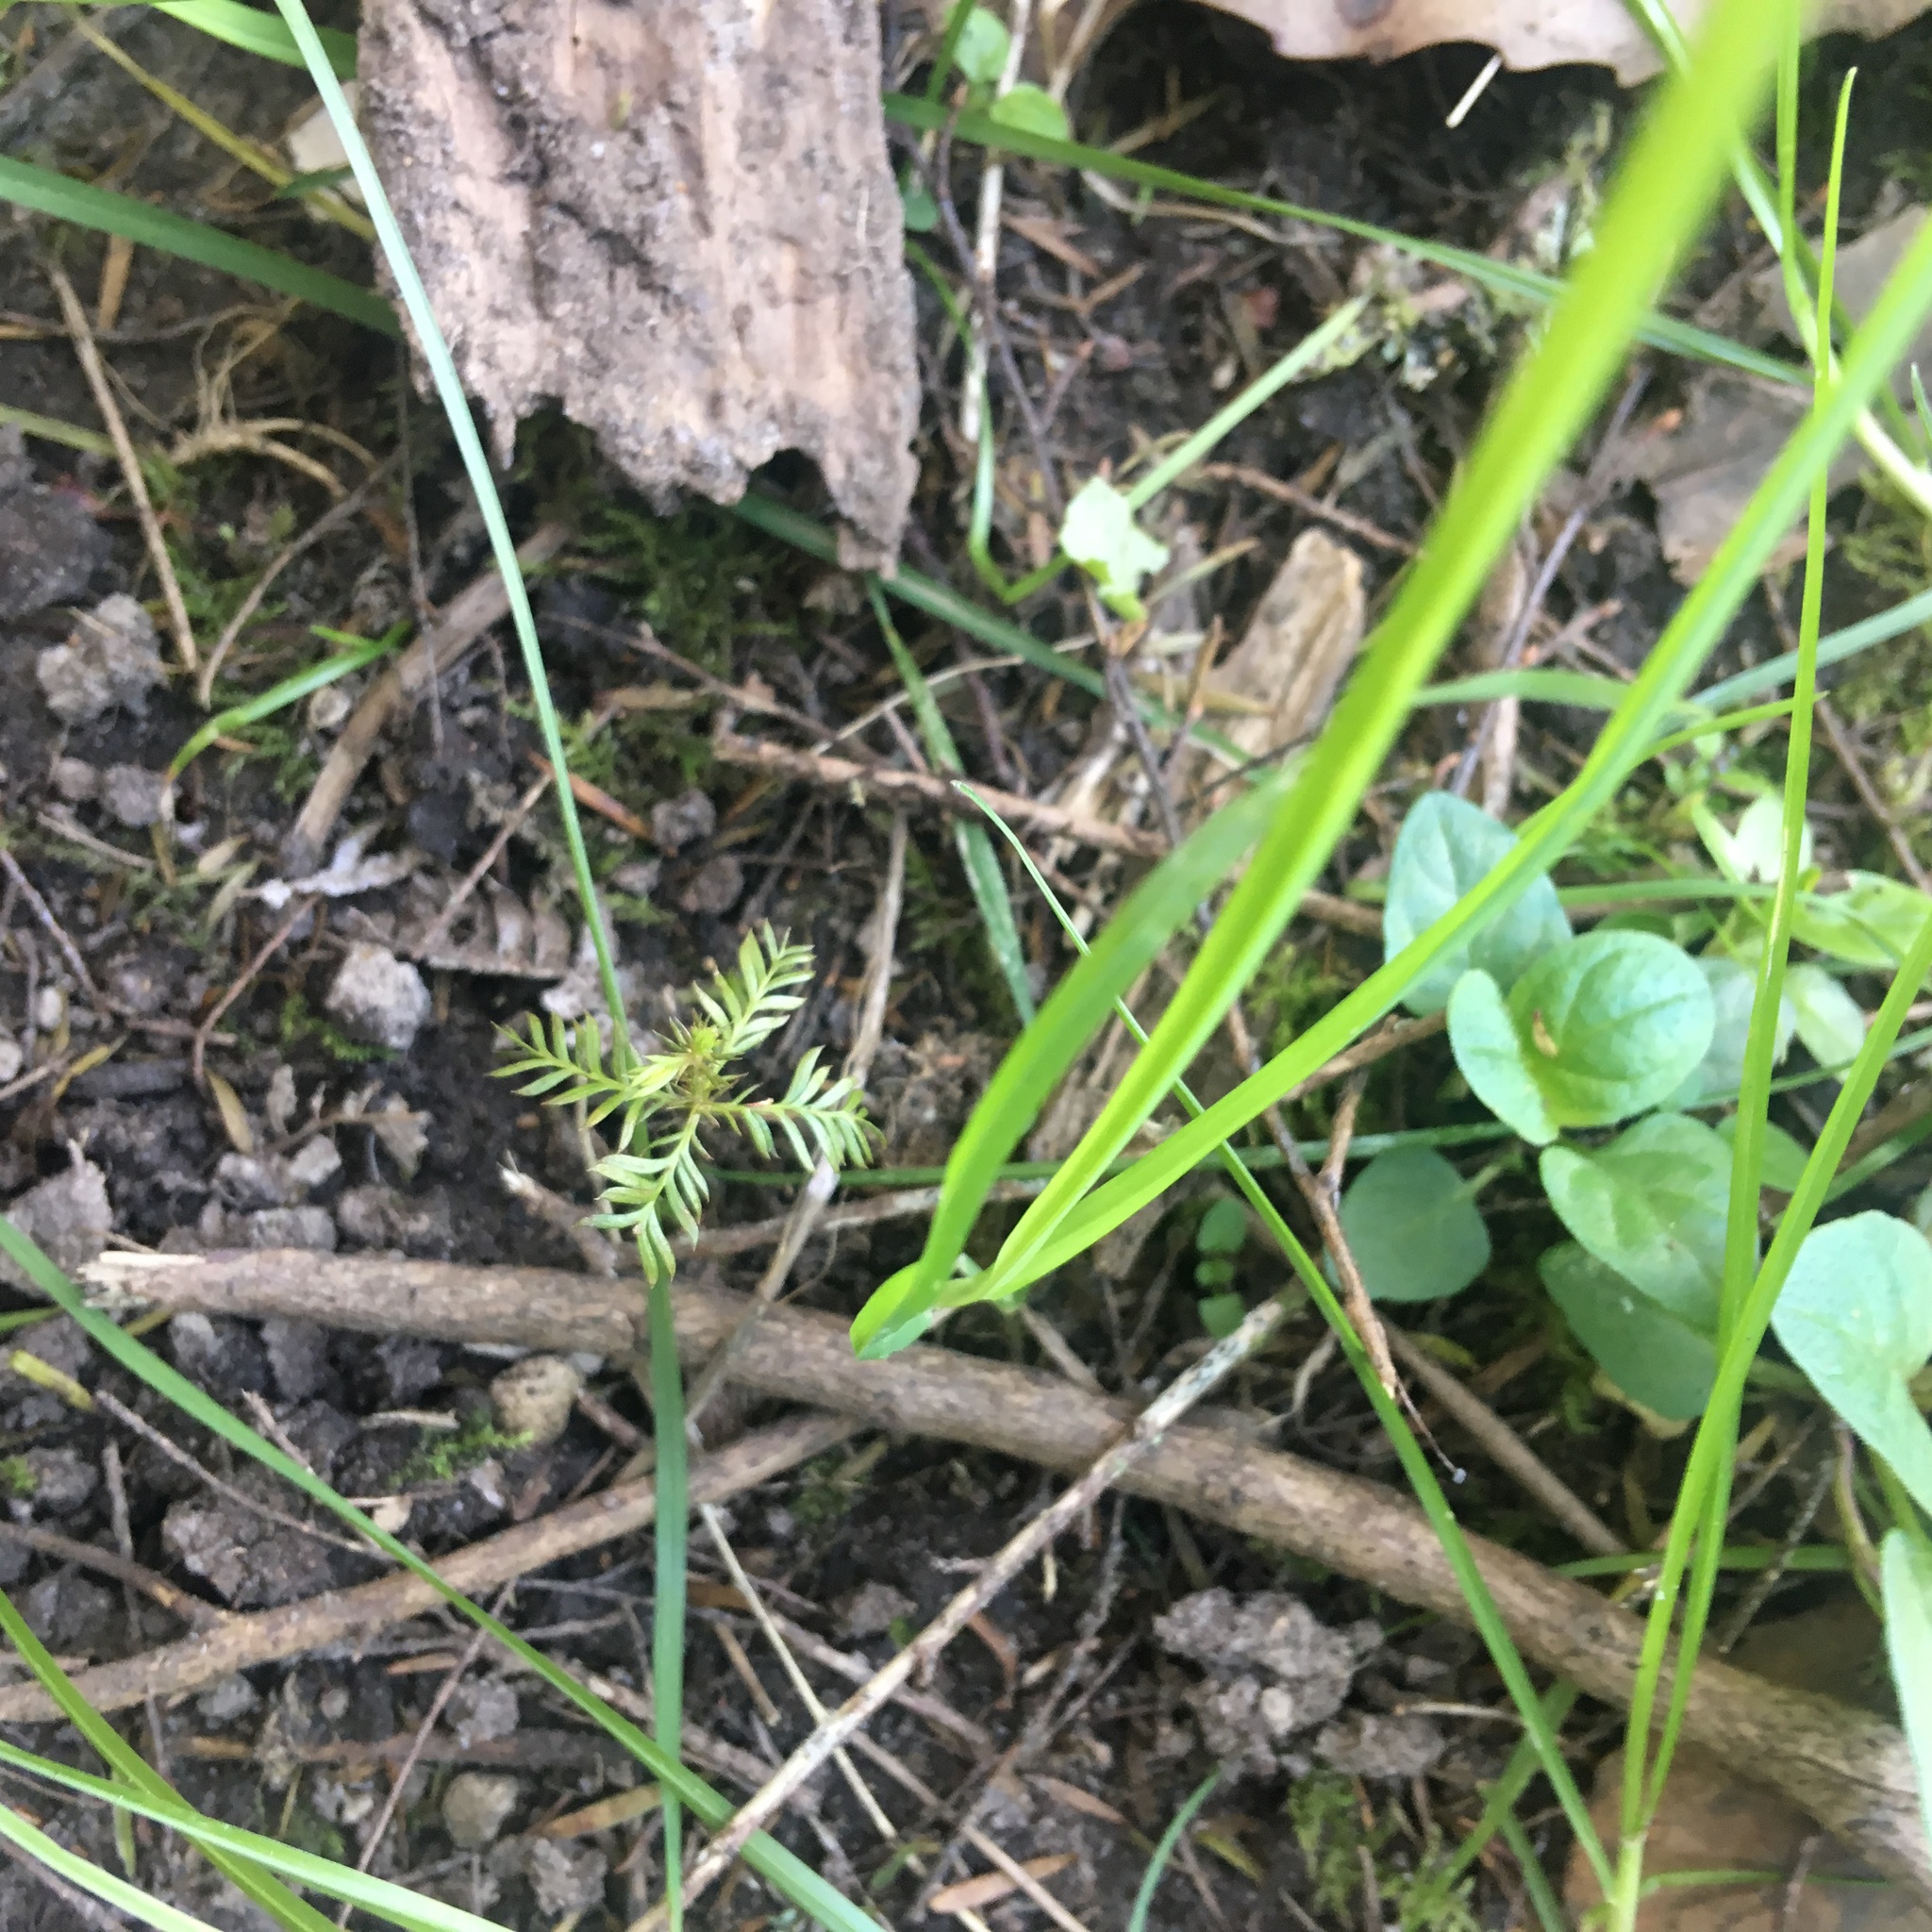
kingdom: Plantae
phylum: Tracheophyta
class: Pinopsida
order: Pinales
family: Podocarpaceae
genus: Dacrycarpus
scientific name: Dacrycarpus dacrydioides
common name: White pine
